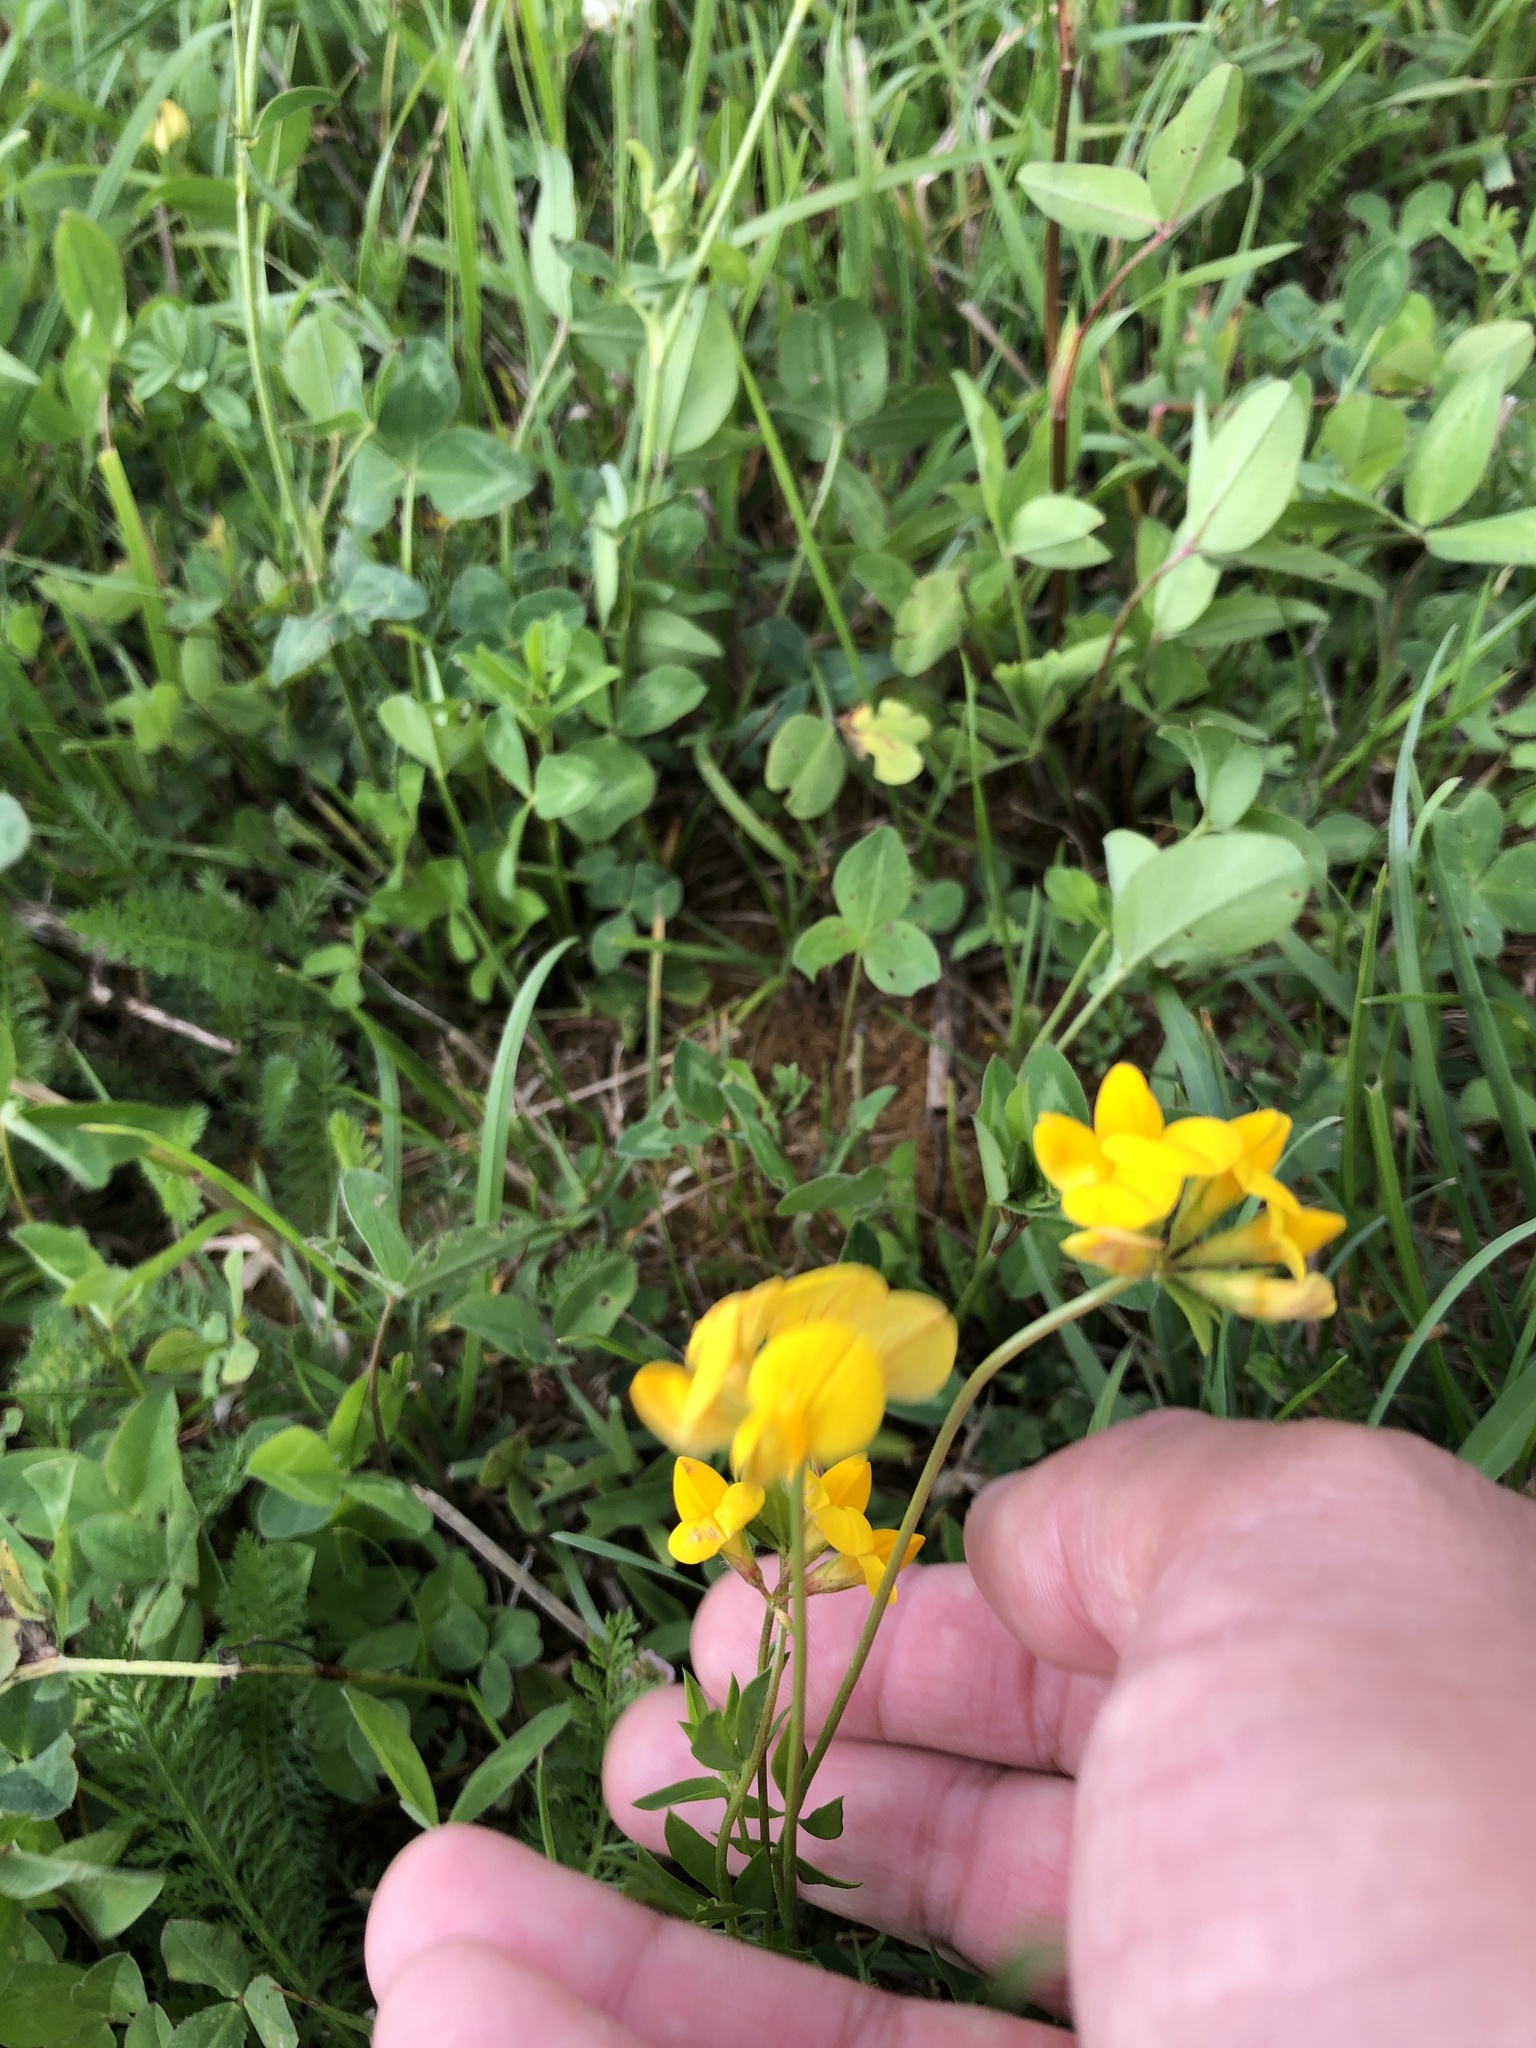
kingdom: Plantae
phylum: Tracheophyta
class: Magnoliopsida
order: Fabales
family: Fabaceae
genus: Lotus
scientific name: Lotus corniculatus
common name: Common bird's-foot-trefoil
